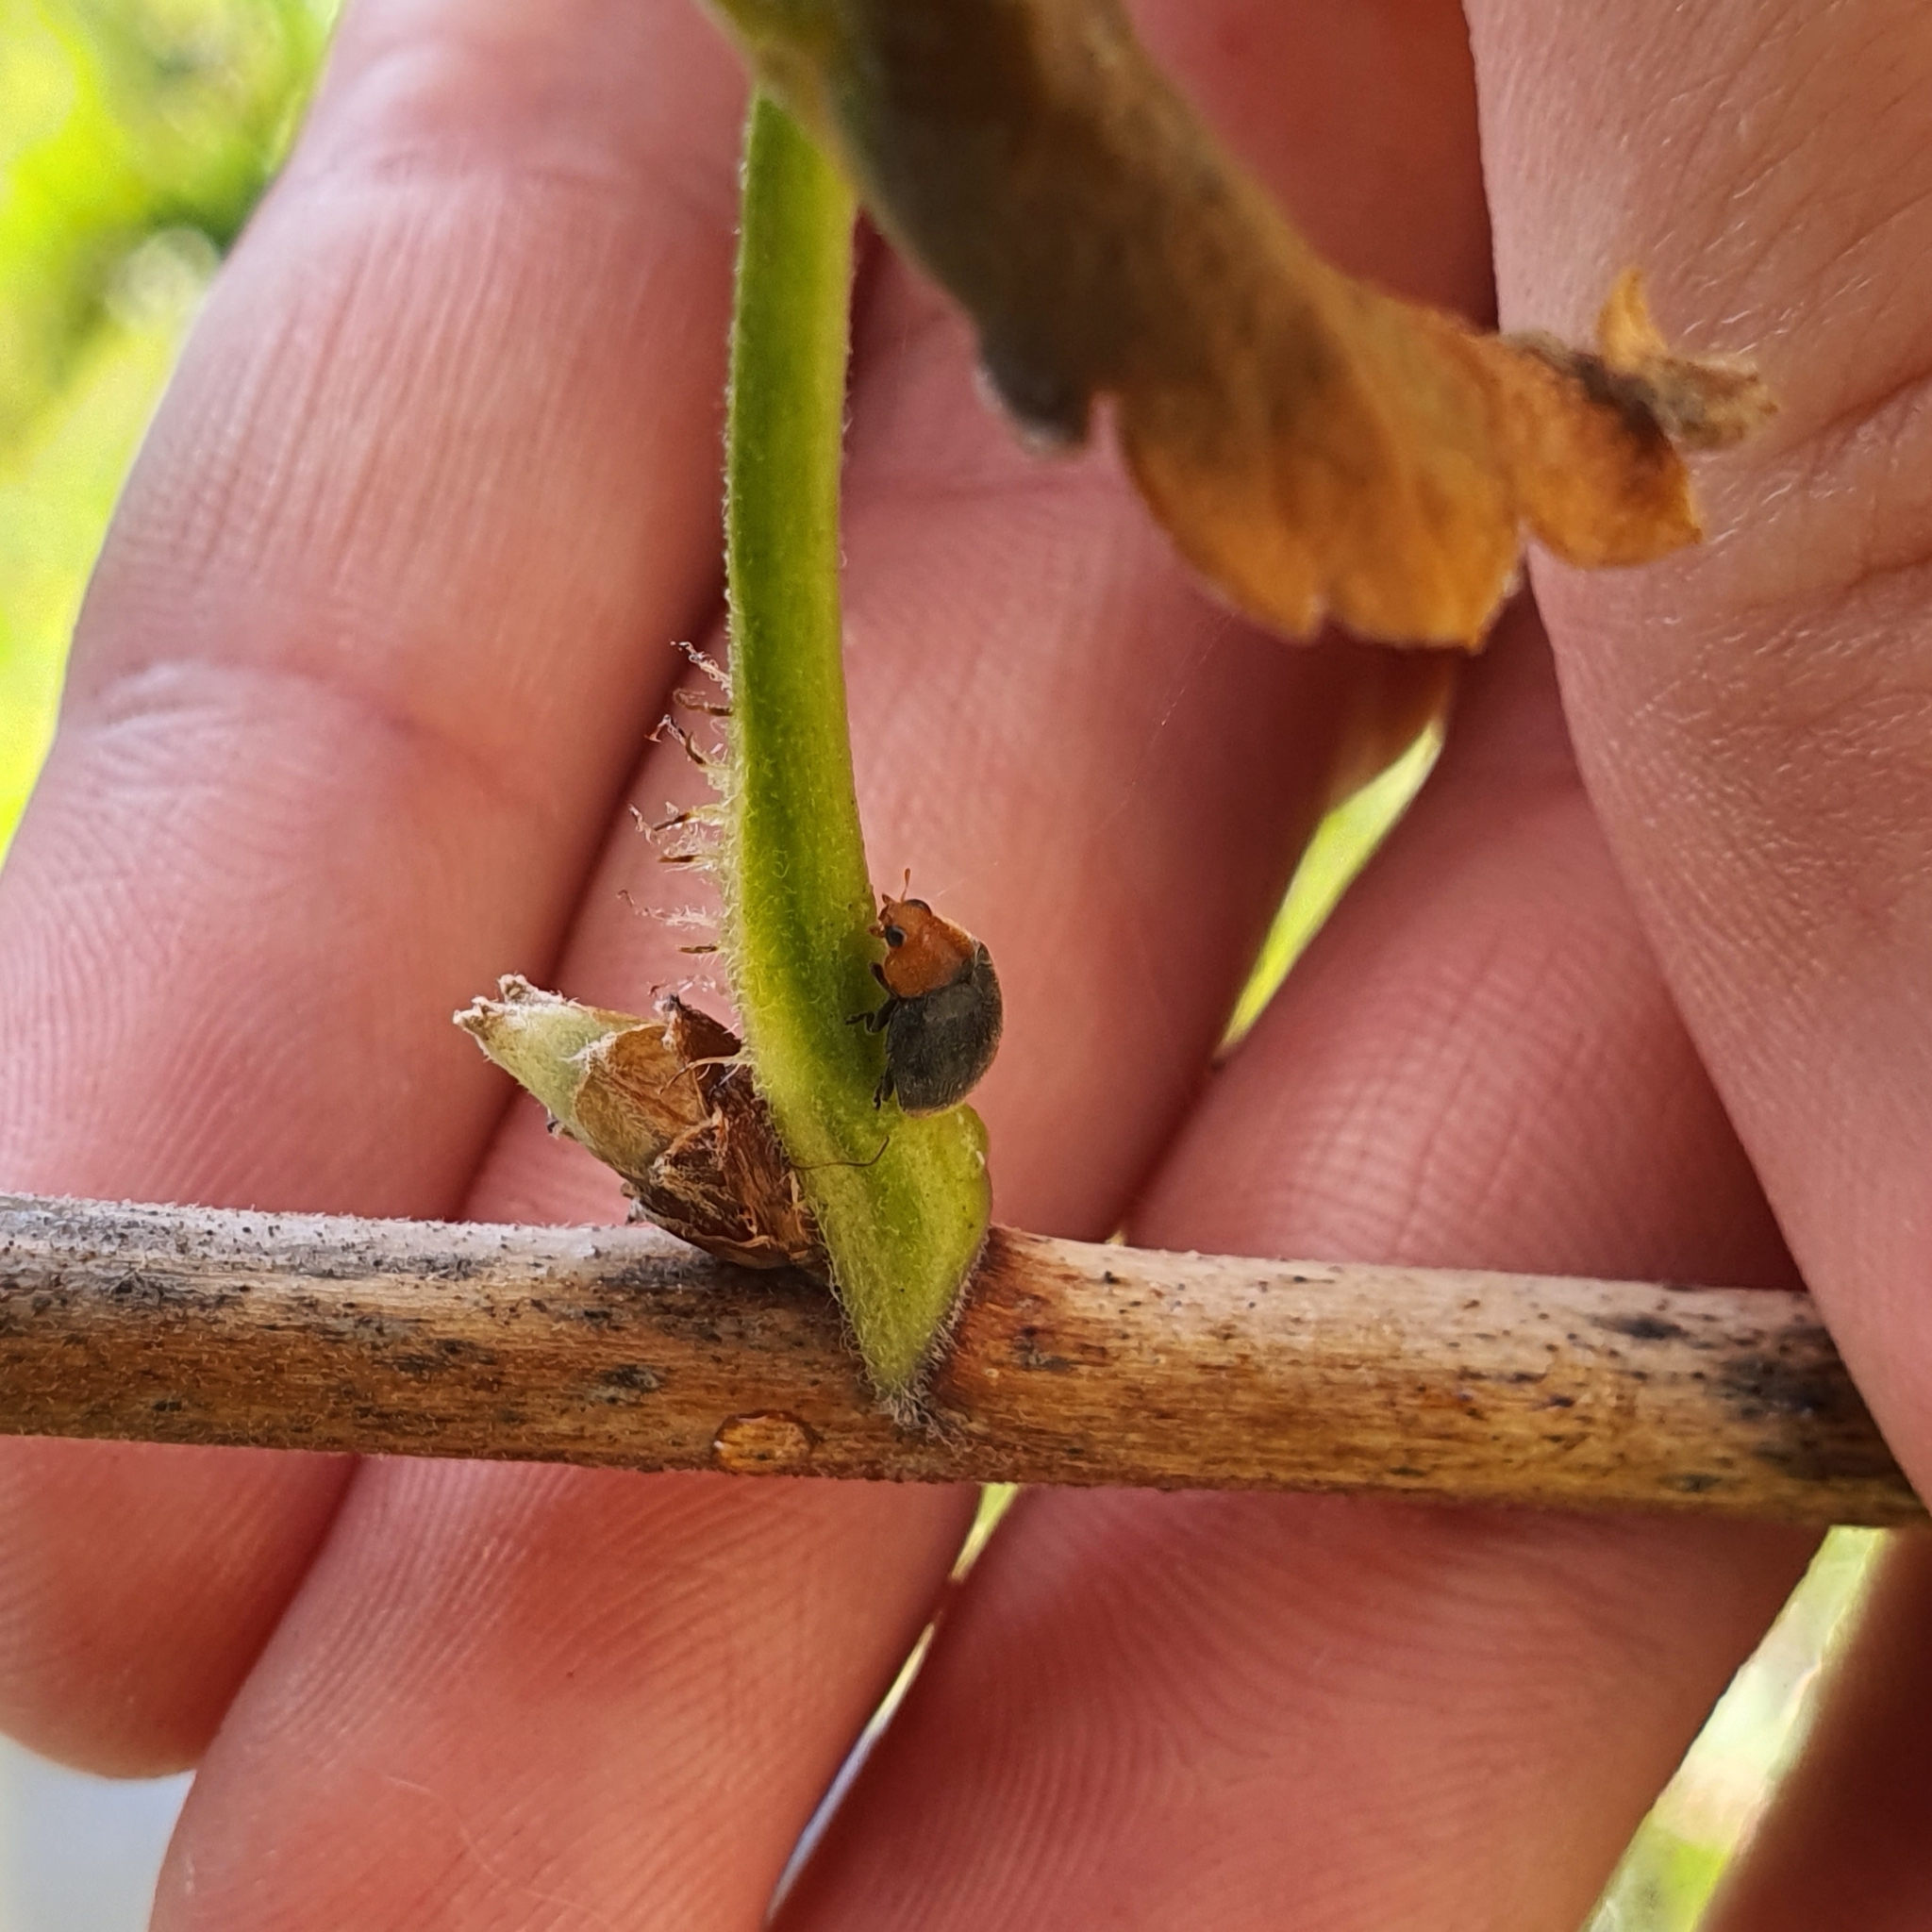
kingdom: Animalia
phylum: Arthropoda
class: Insecta
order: Coleoptera
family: Coccinellidae
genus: Cryptolaemus
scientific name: Cryptolaemus montrouzieri
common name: Mealybug destroyer
